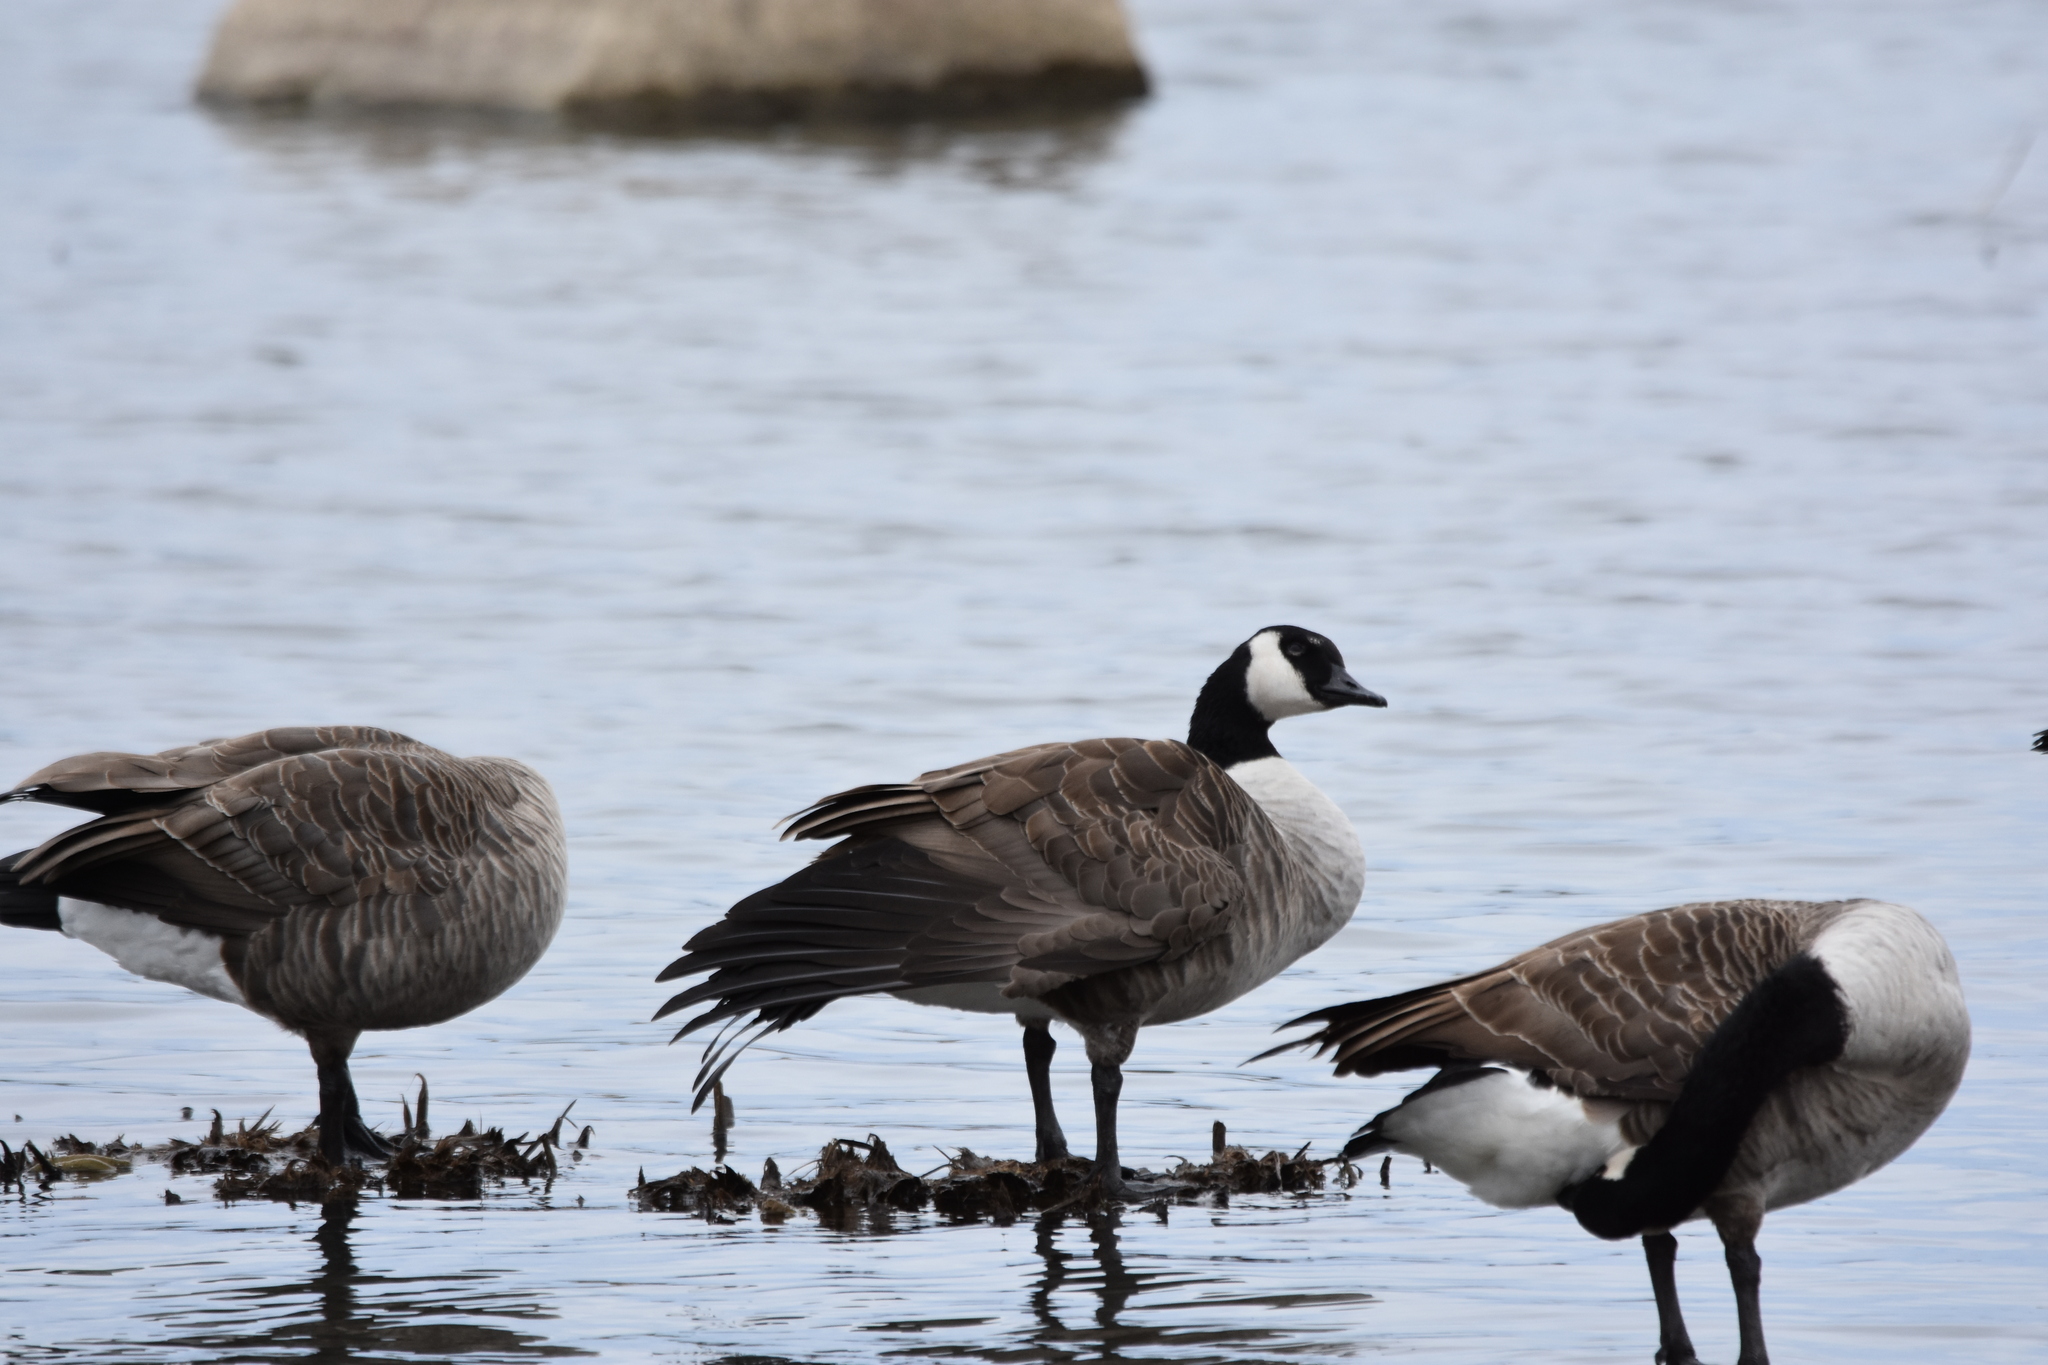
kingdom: Animalia
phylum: Chordata
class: Aves
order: Anseriformes
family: Anatidae
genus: Branta
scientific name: Branta canadensis
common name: Canada goose
